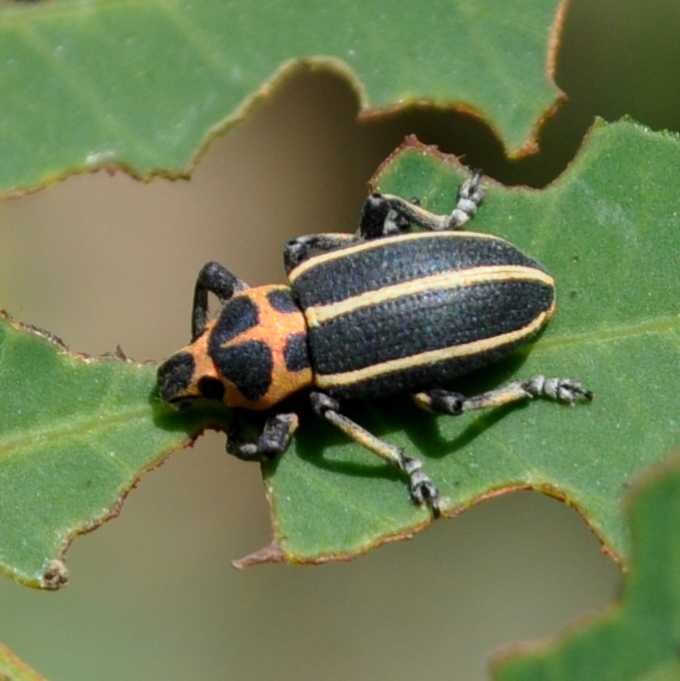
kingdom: Animalia
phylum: Arthropoda
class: Insecta
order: Coleoptera
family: Curculionidae
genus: Eudiagogus
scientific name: Eudiagogus episcopalis
